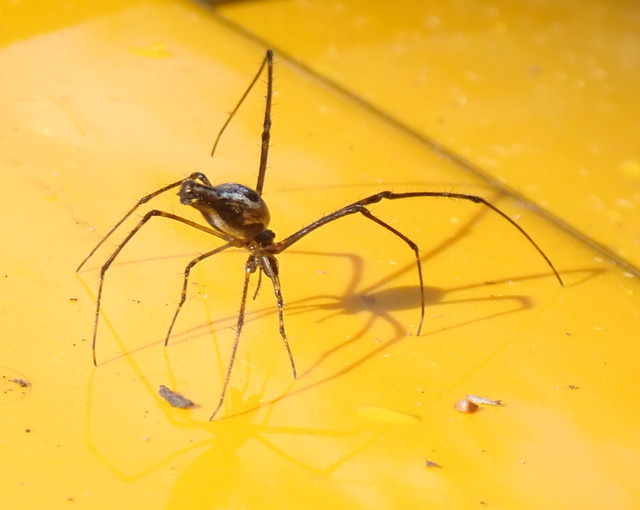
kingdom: Animalia
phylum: Arthropoda
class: Arachnida
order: Araneae
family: Tetragnathidae
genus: Tetragnatha
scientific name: Tetragnatha elongata
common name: Longjawed orb weavers
